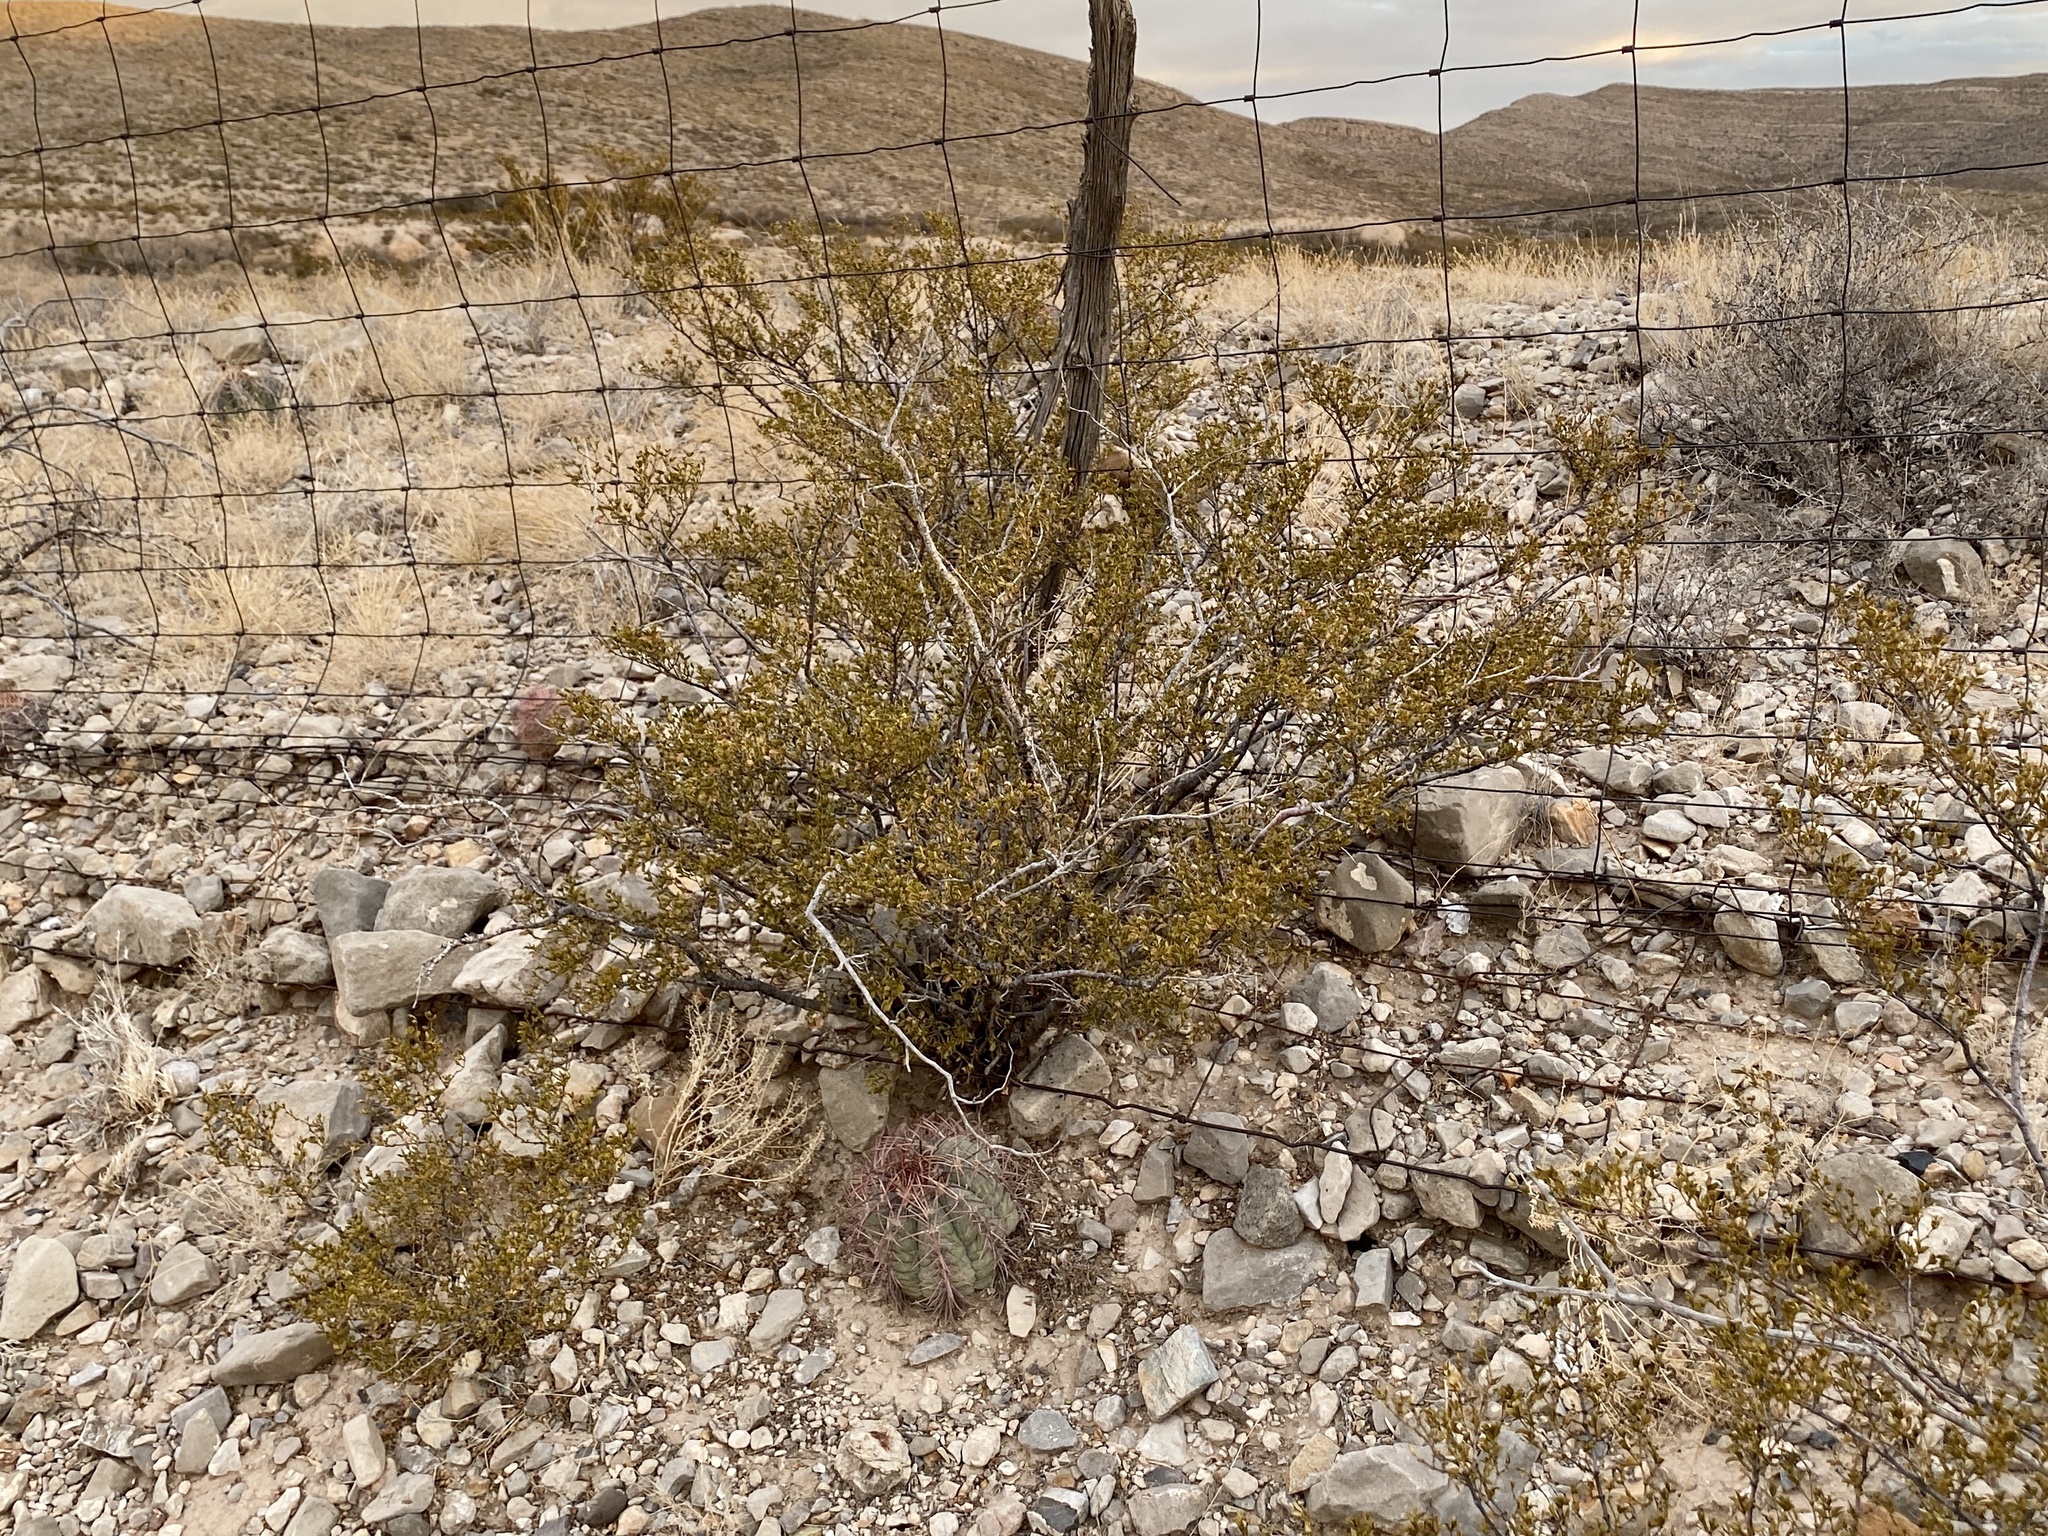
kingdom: Plantae
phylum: Tracheophyta
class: Magnoliopsida
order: Zygophyllales
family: Zygophyllaceae
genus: Larrea
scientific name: Larrea tridentata
